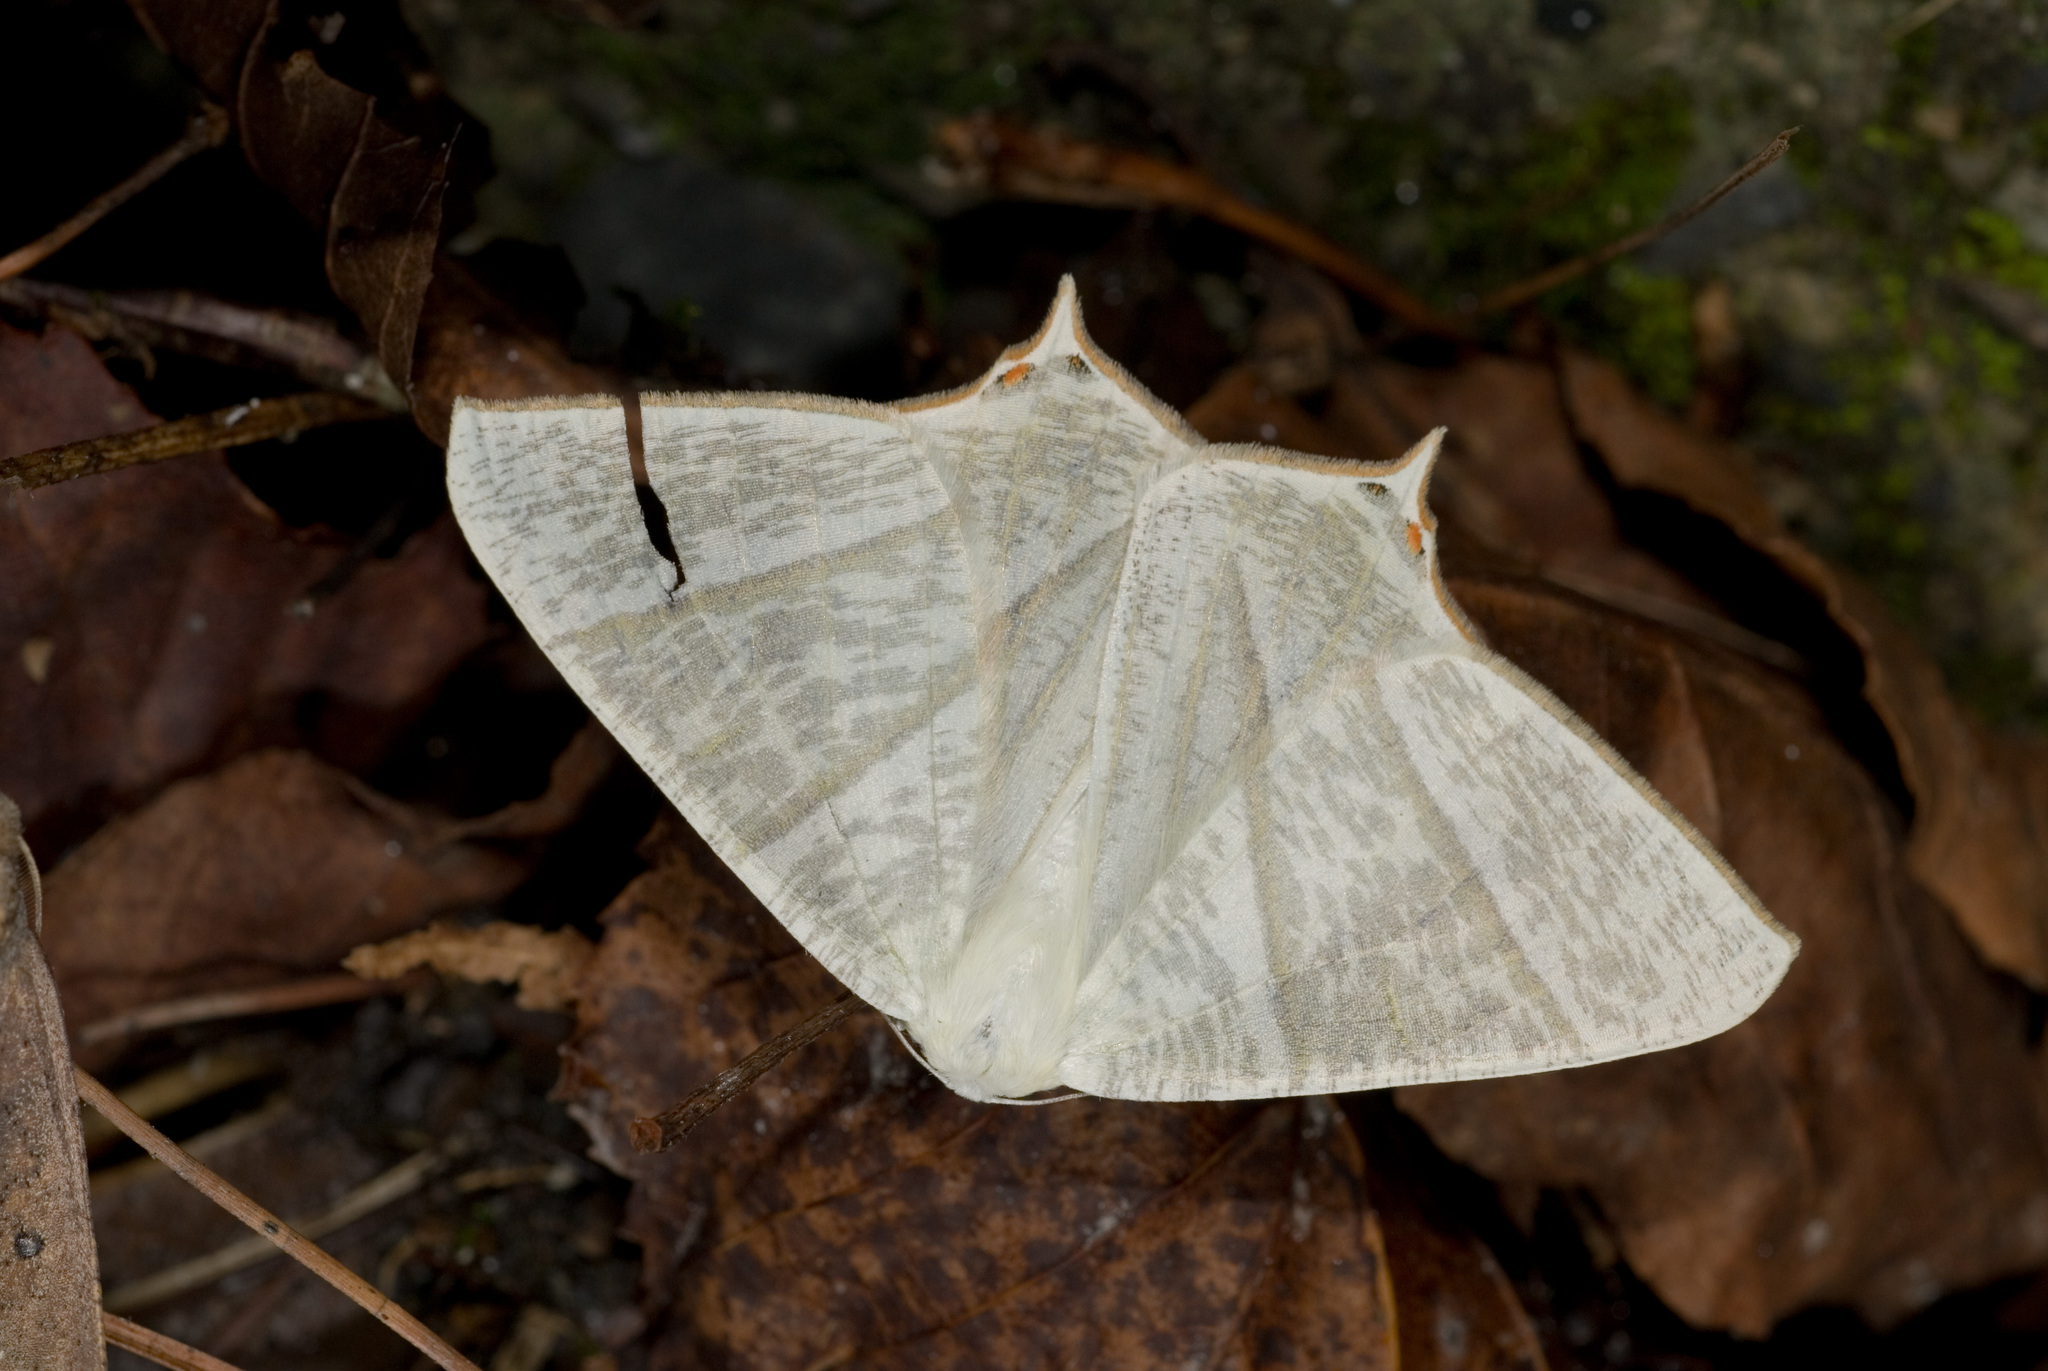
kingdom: Animalia
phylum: Arthropoda
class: Insecta
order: Lepidoptera
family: Geometridae
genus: Ourapteryx
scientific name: Ourapteryx inspersa
